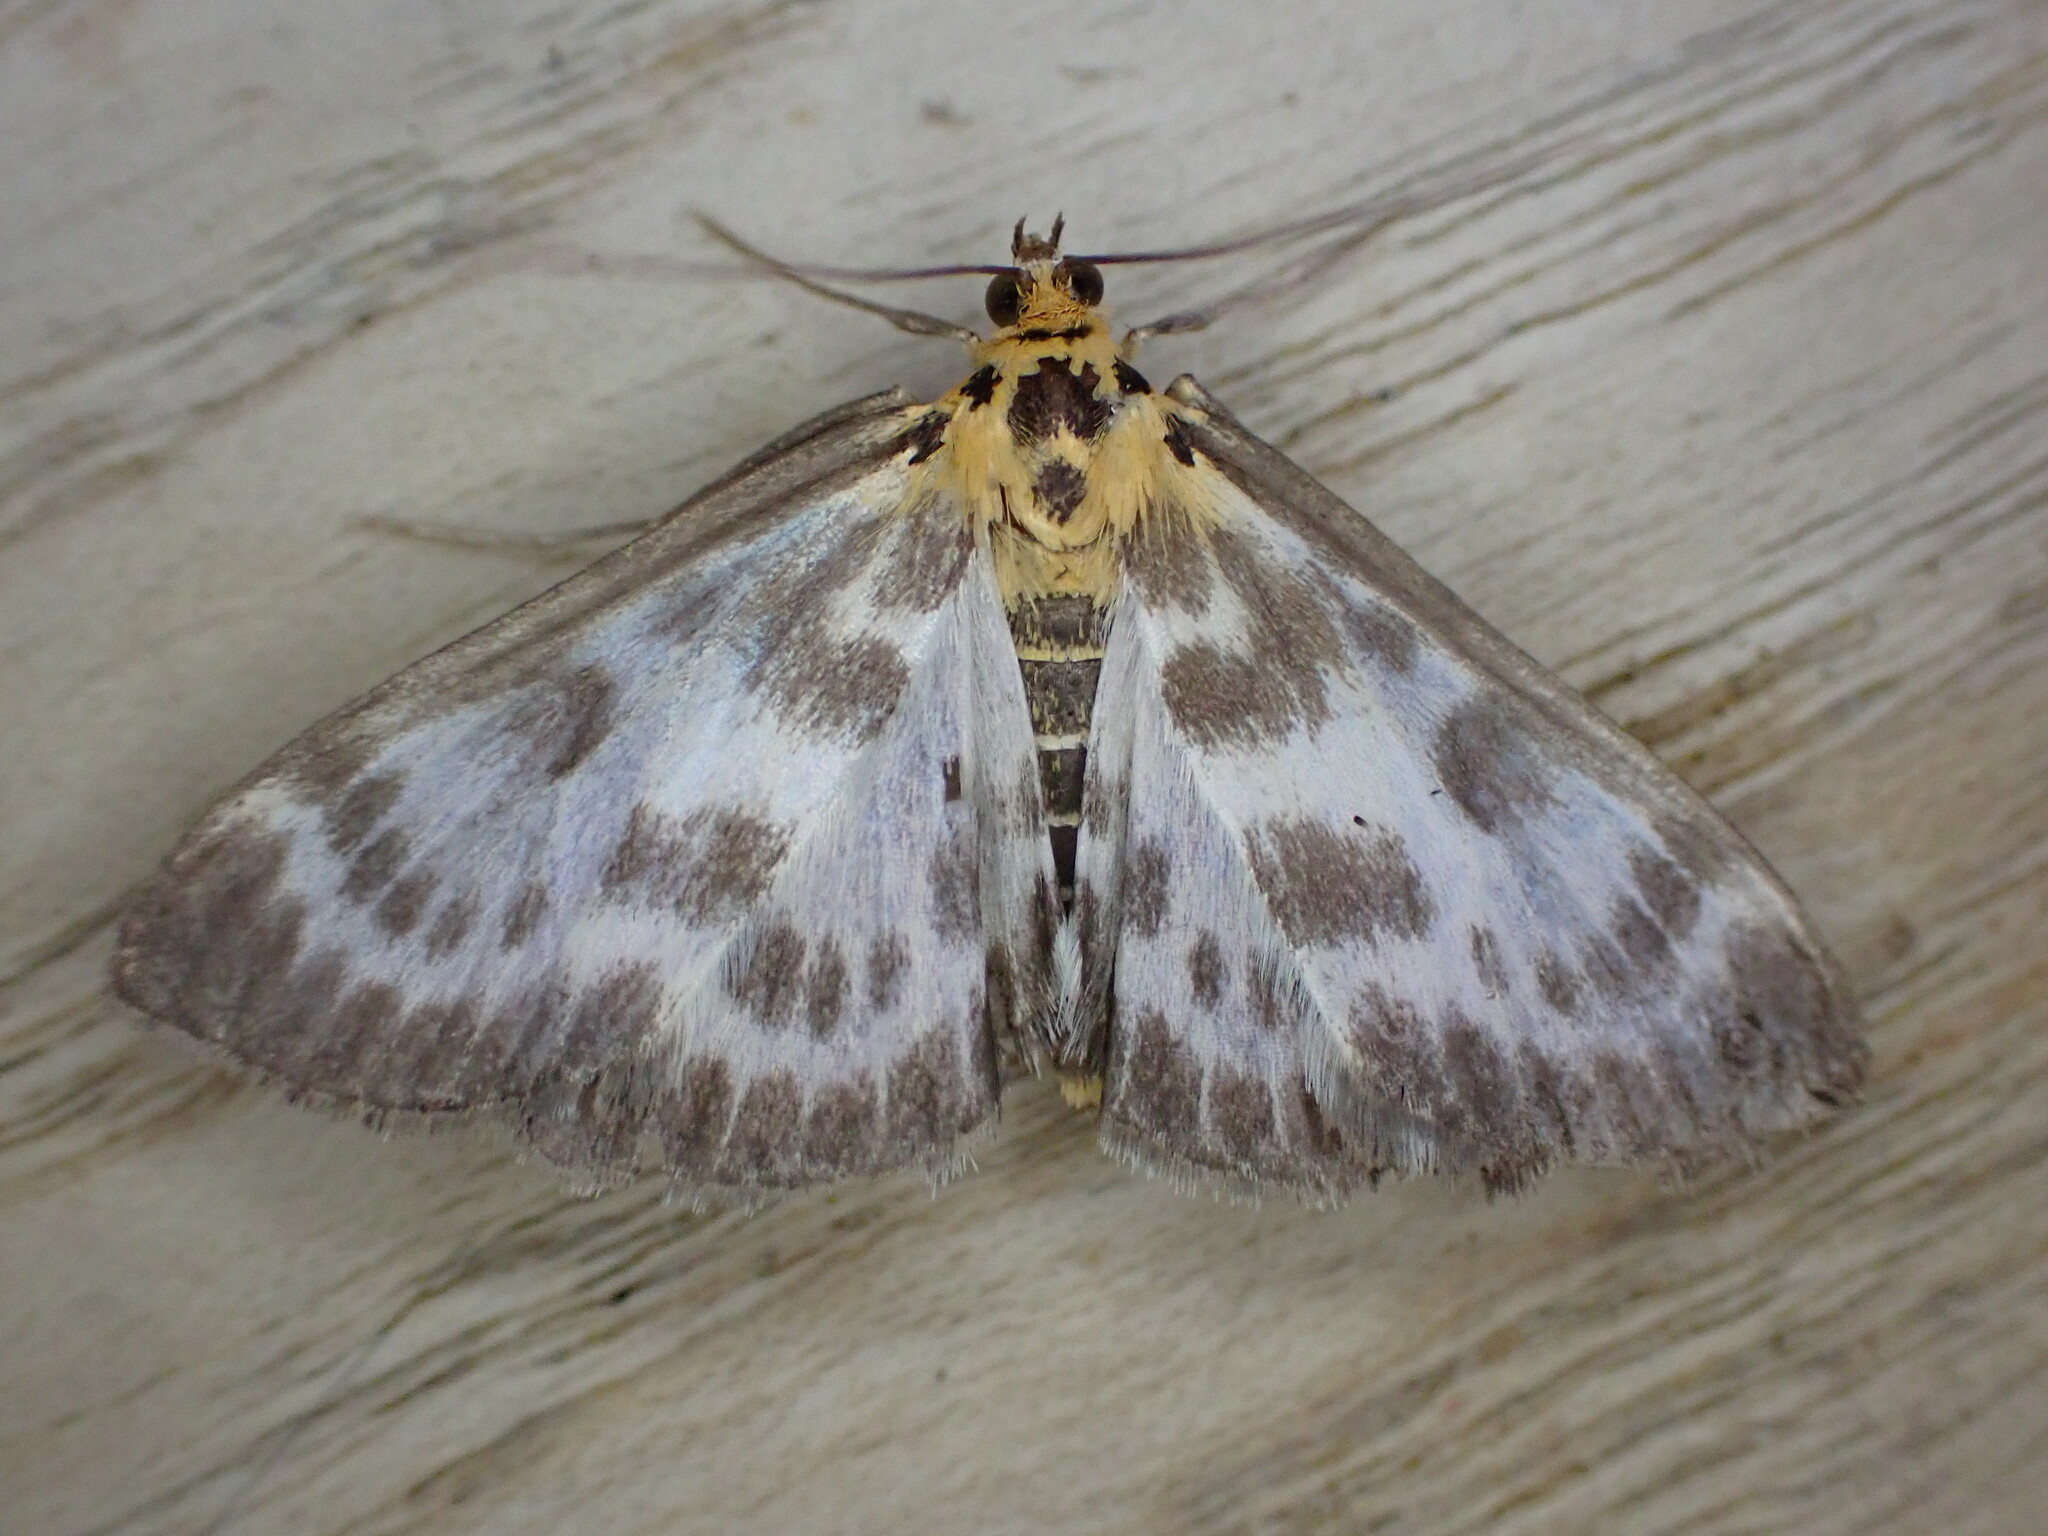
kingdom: Animalia
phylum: Arthropoda
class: Insecta
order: Lepidoptera
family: Crambidae
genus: Anania
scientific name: Anania hortulata
